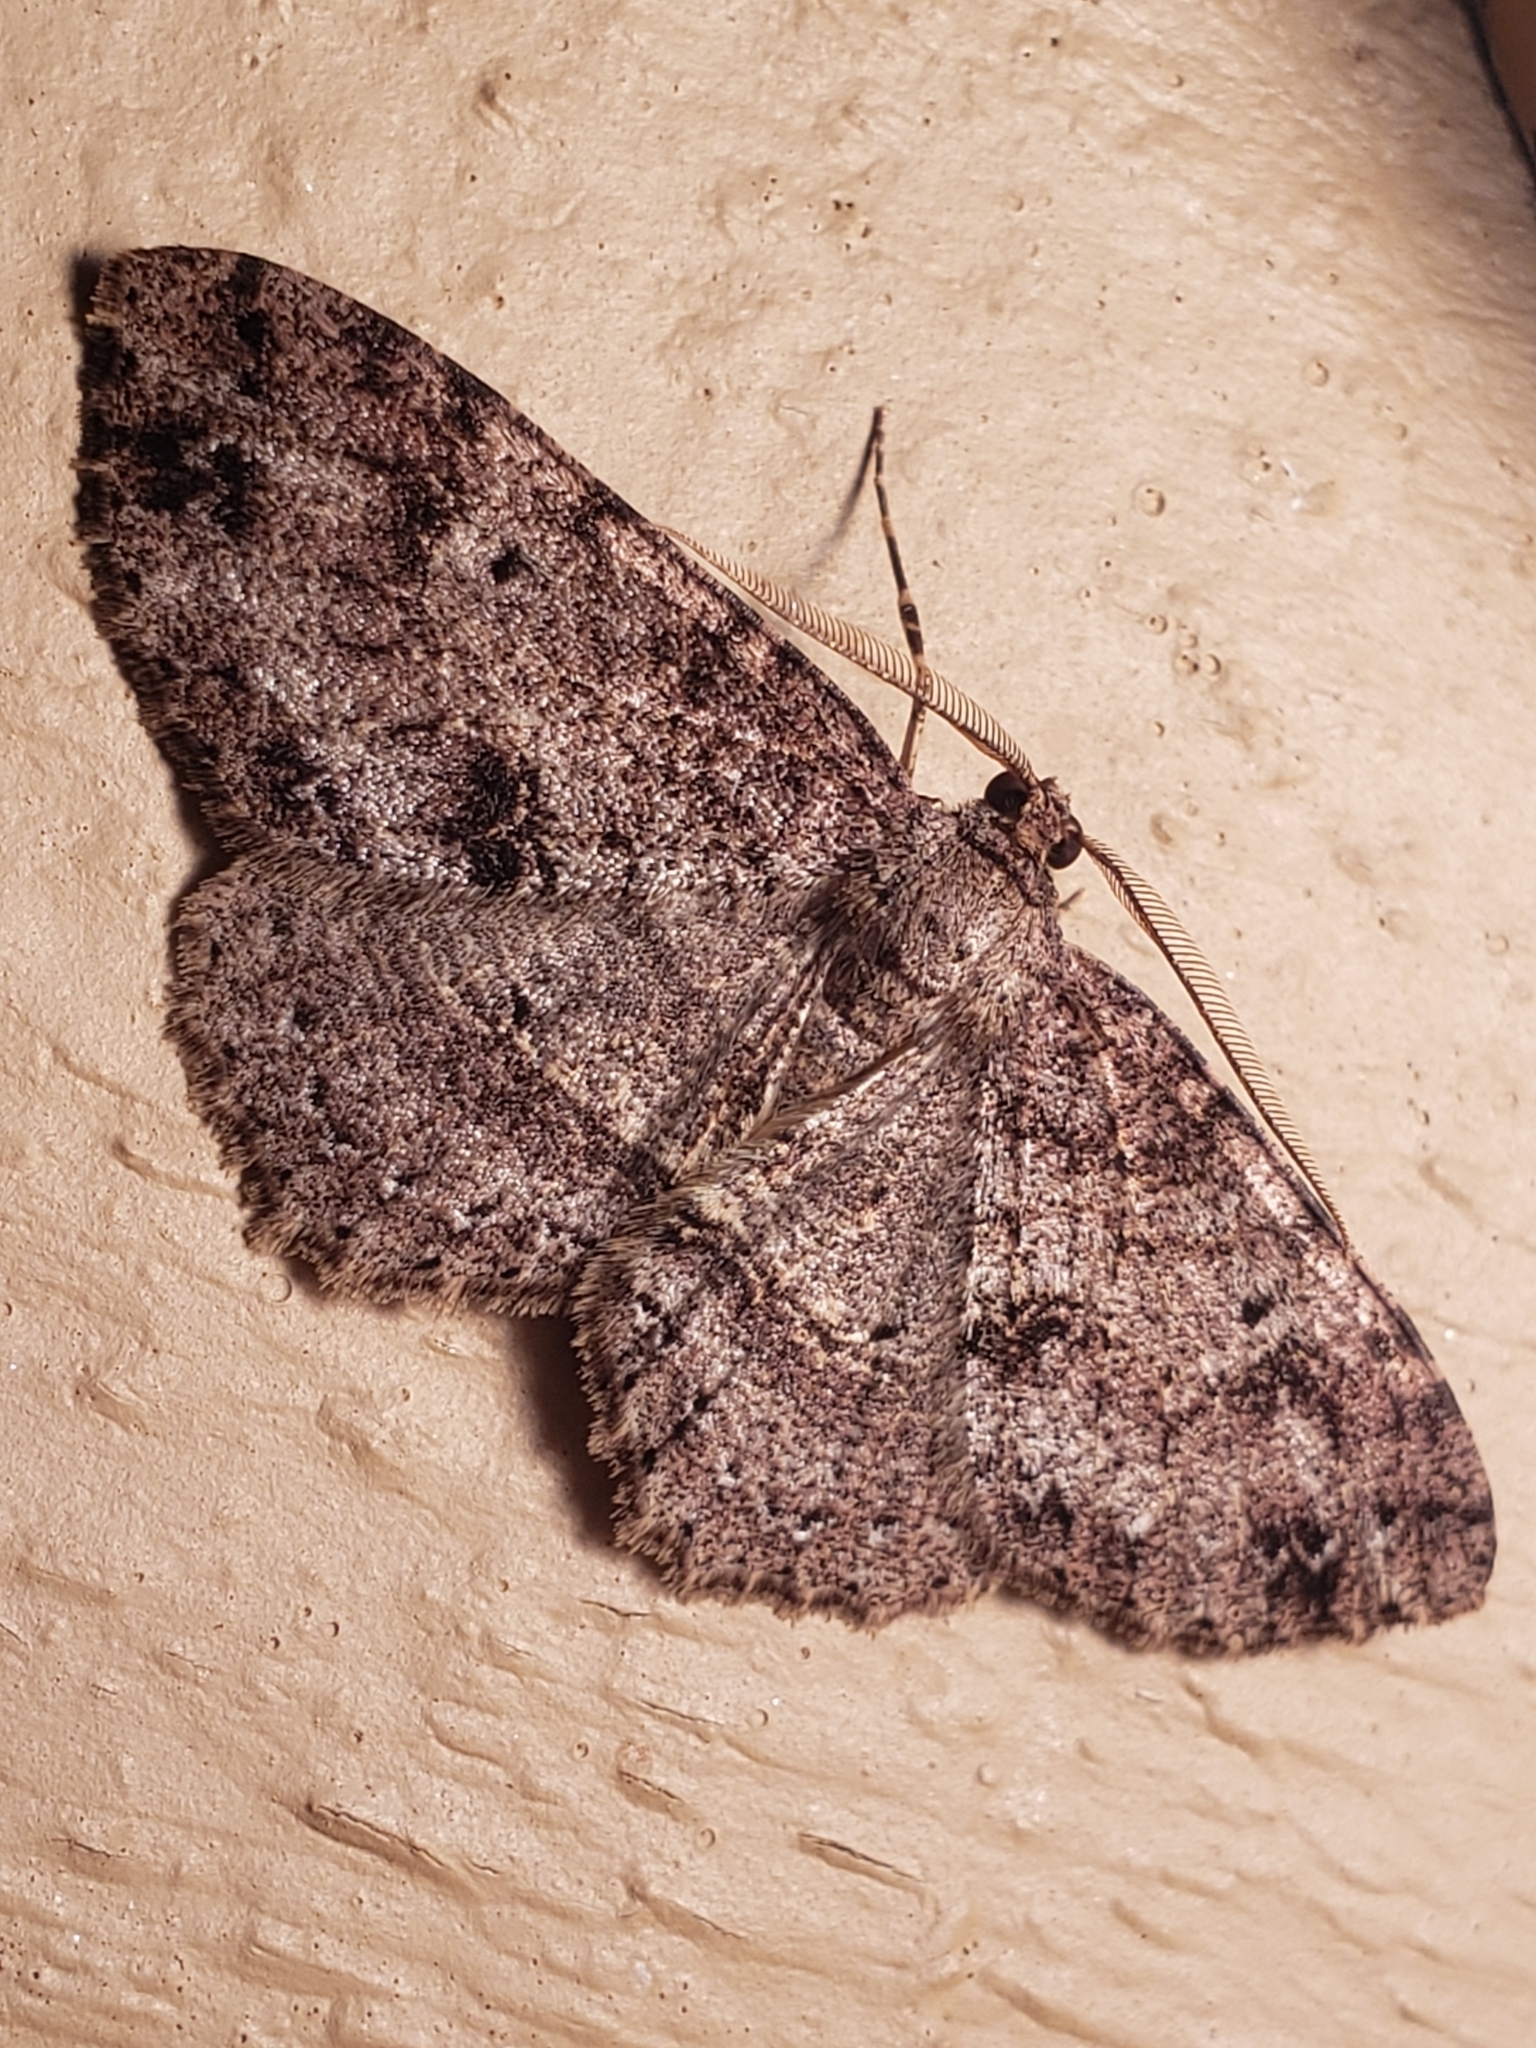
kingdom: Animalia
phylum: Arthropoda
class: Insecta
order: Lepidoptera
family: Geometridae
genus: Melanolophia
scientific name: Melanolophia canadaria
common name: Canadian melanolophia
